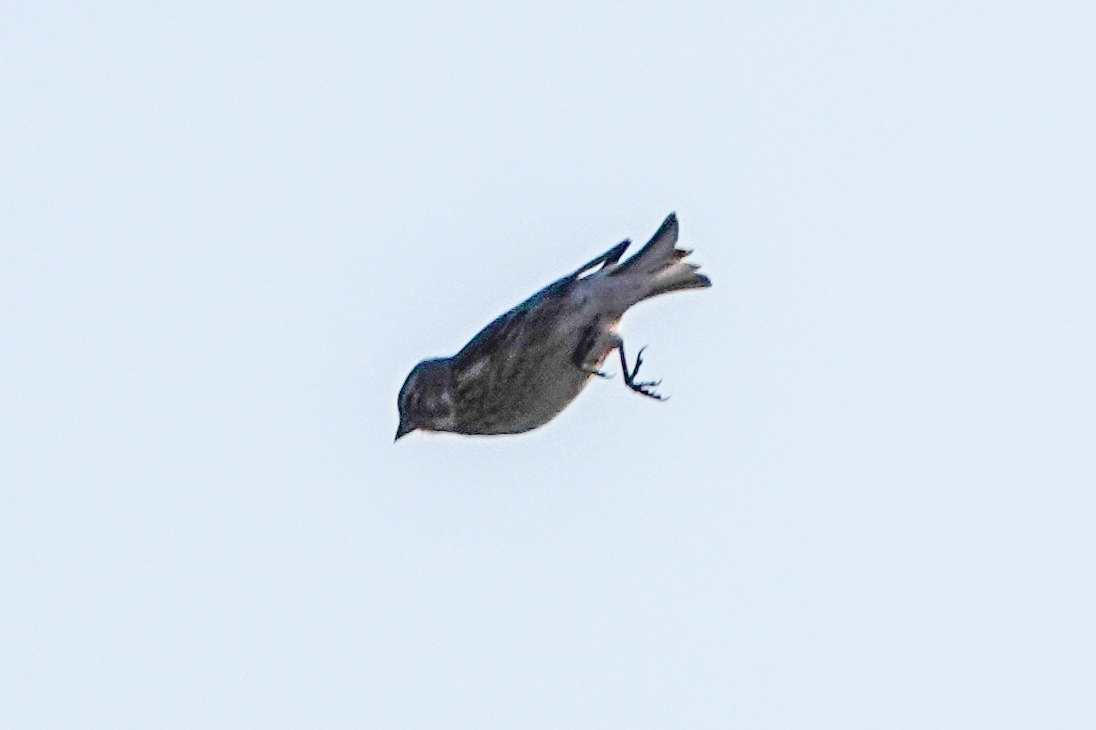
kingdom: Animalia
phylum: Chordata
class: Aves
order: Passeriformes
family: Fringillidae
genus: Linaria
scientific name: Linaria cannabina
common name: Common linnet
